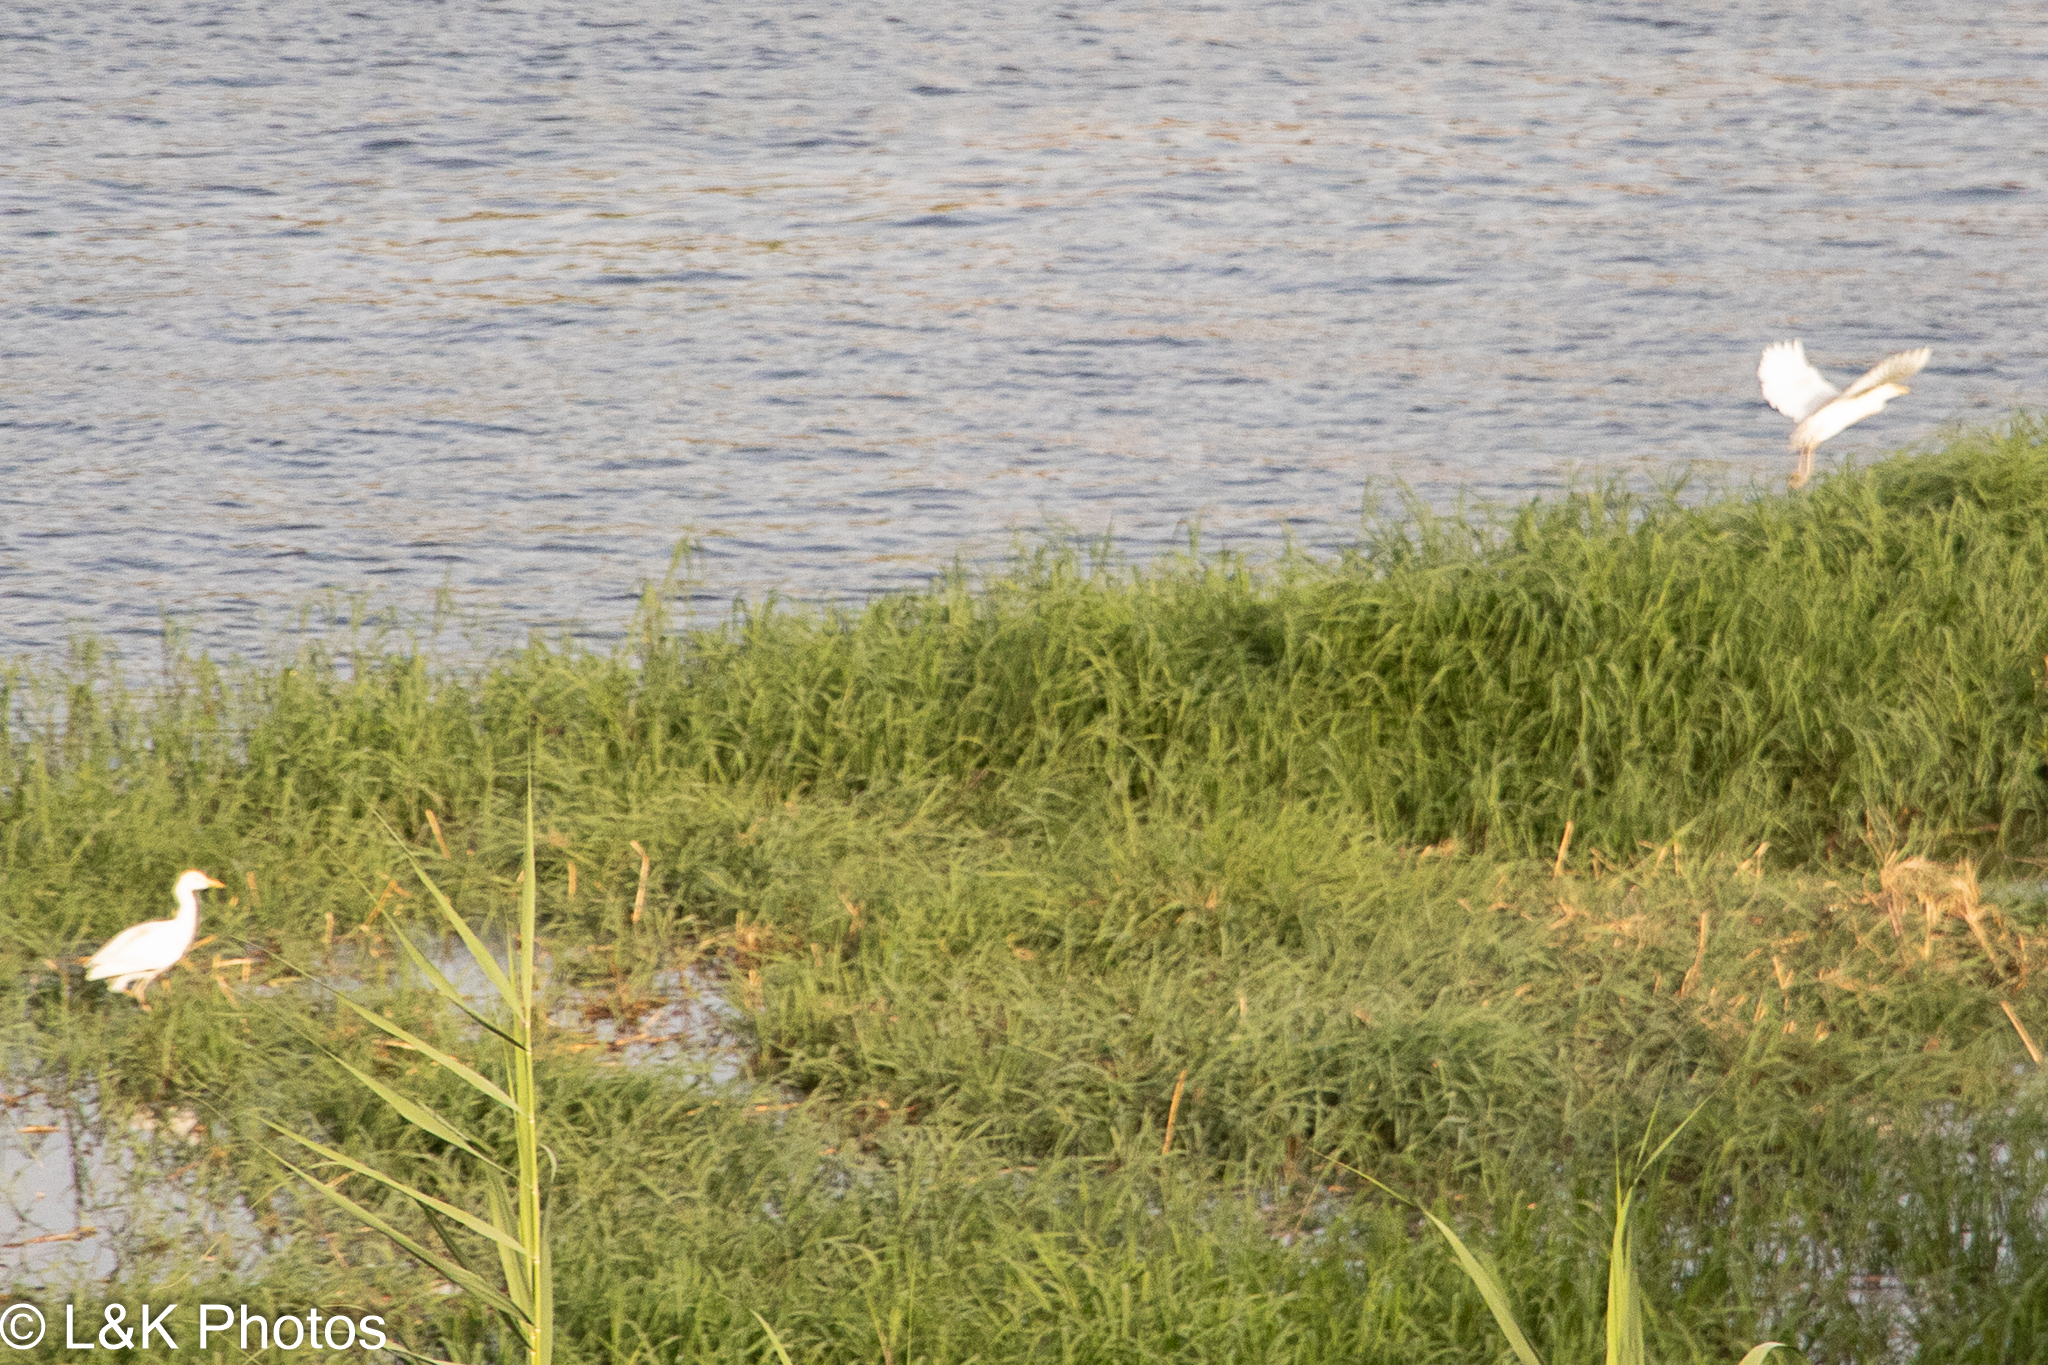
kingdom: Animalia
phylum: Chordata
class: Aves
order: Pelecaniformes
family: Ardeidae
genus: Bubulcus
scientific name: Bubulcus ibis
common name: Cattle egret
